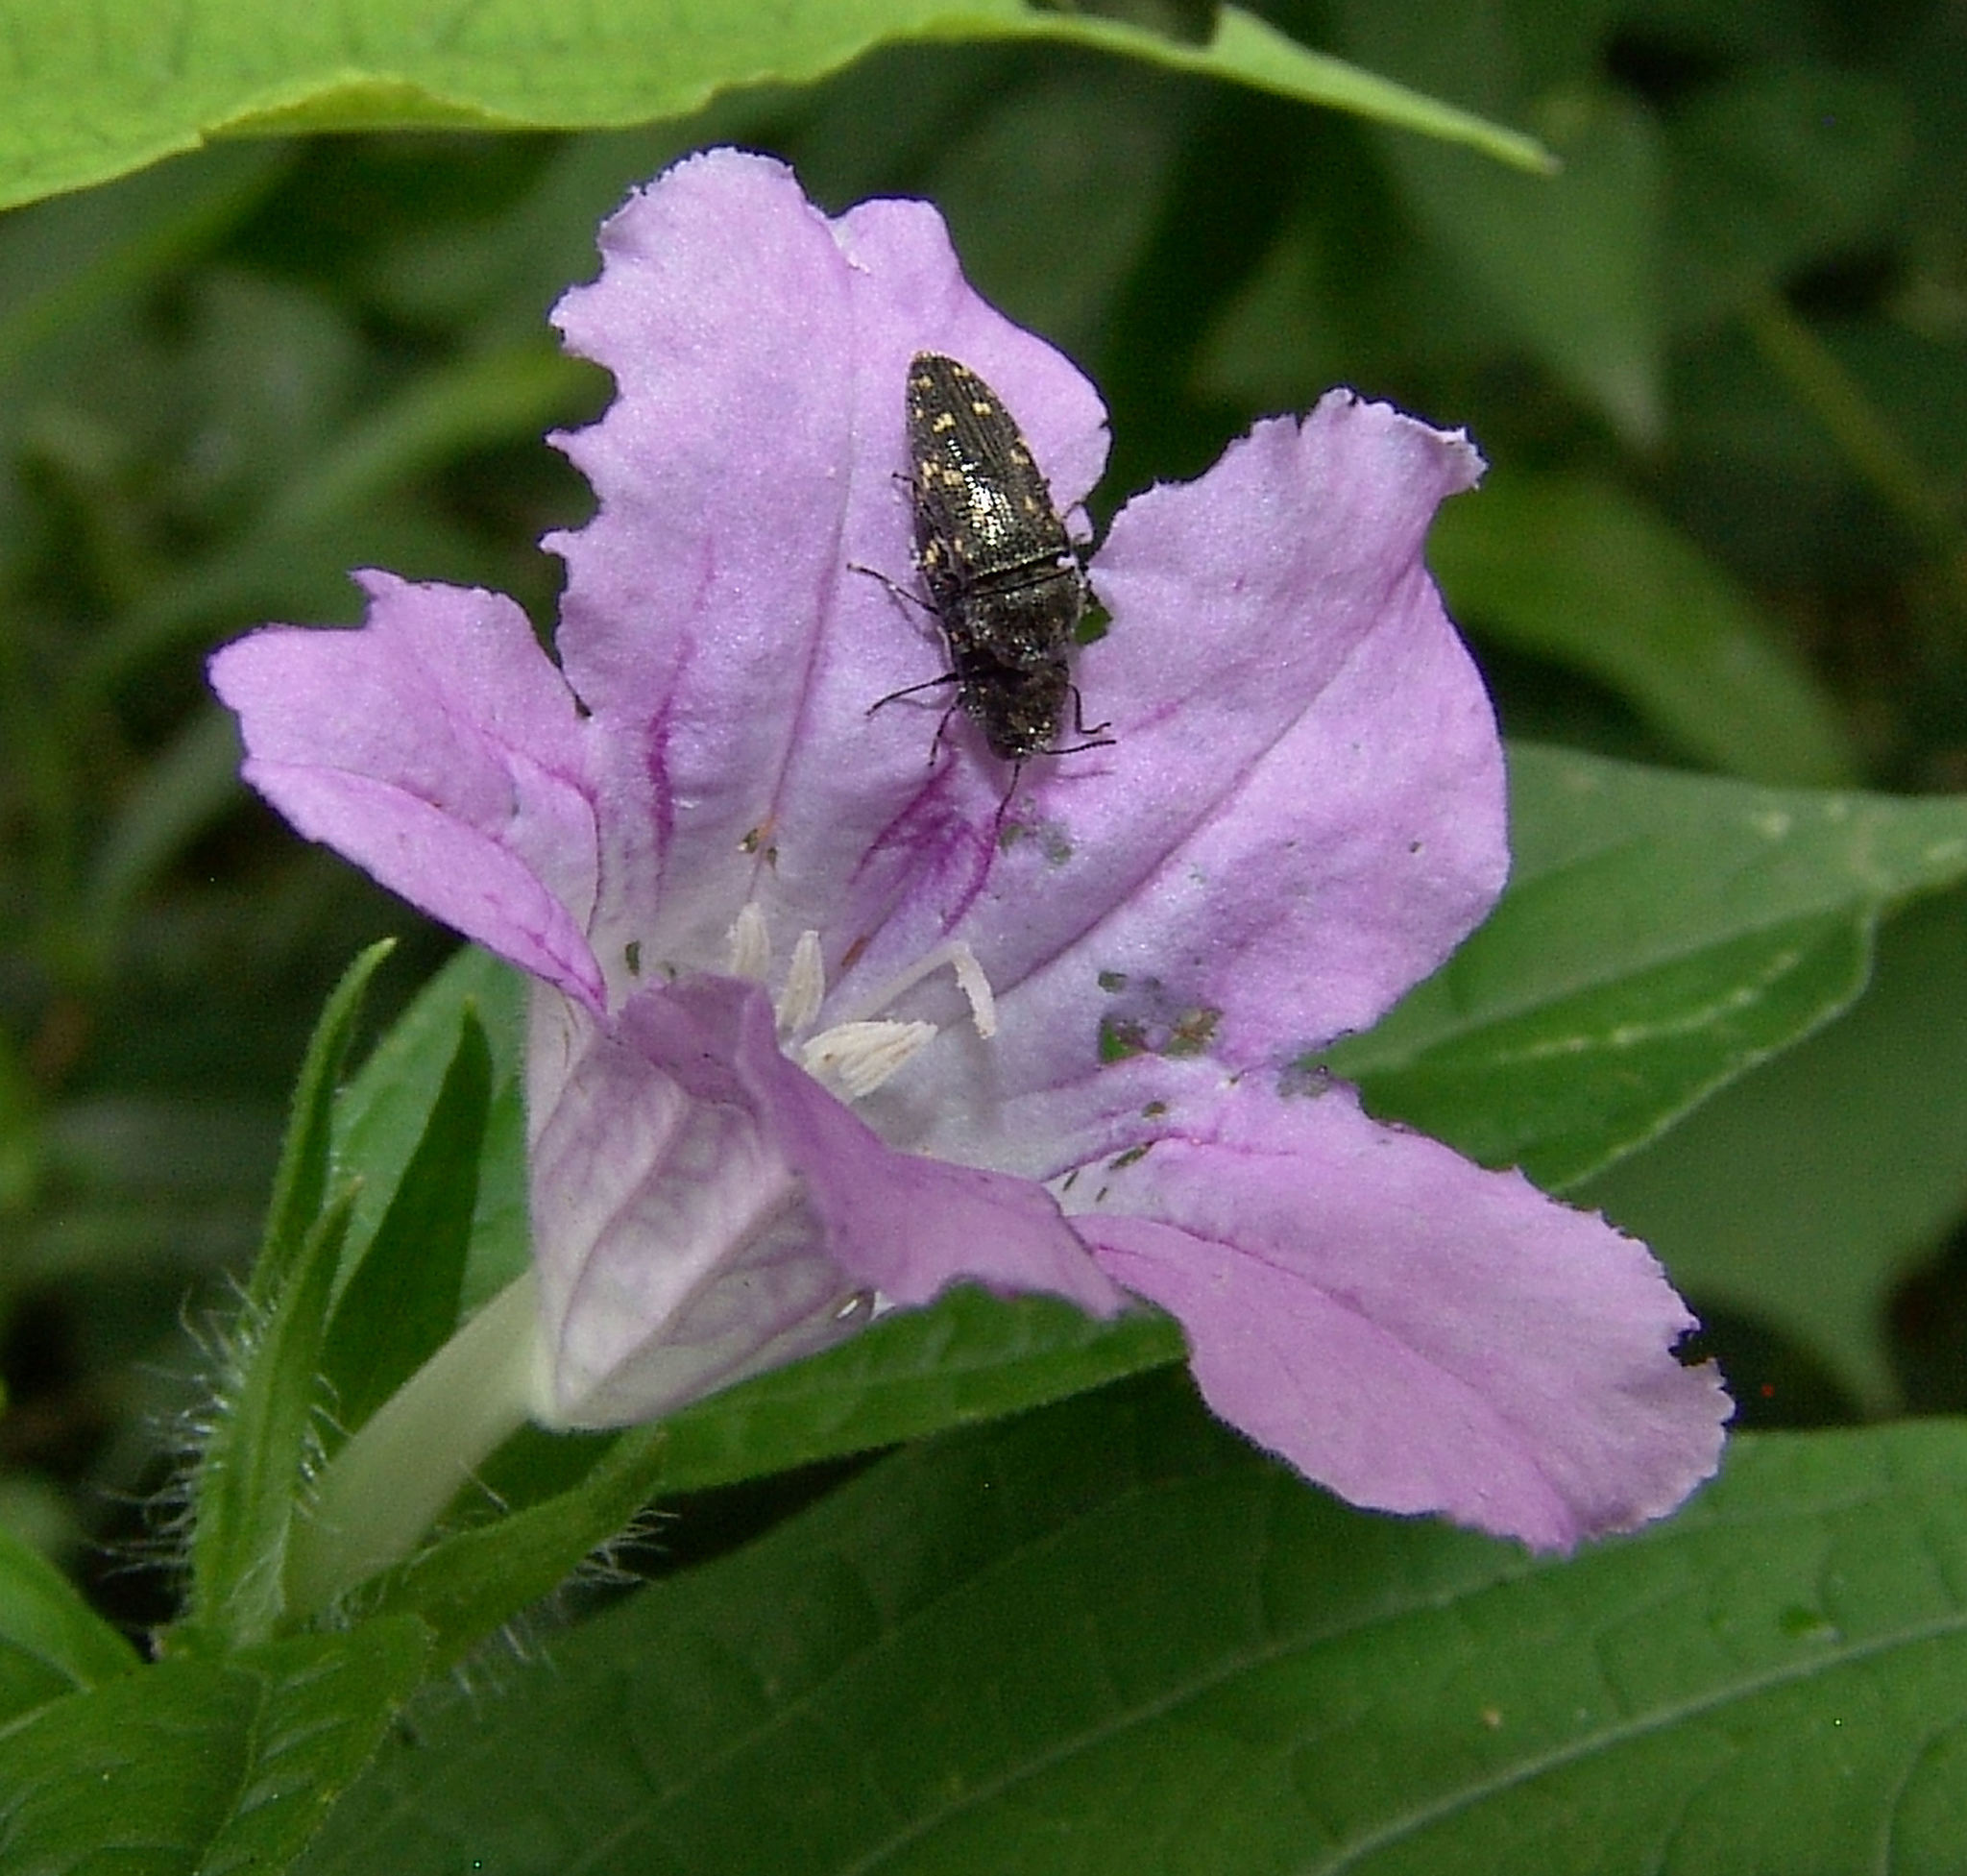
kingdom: Animalia
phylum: Arthropoda
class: Insecta
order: Coleoptera
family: Buprestidae
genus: Acmaeodera
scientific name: Acmaeodera tubulus
